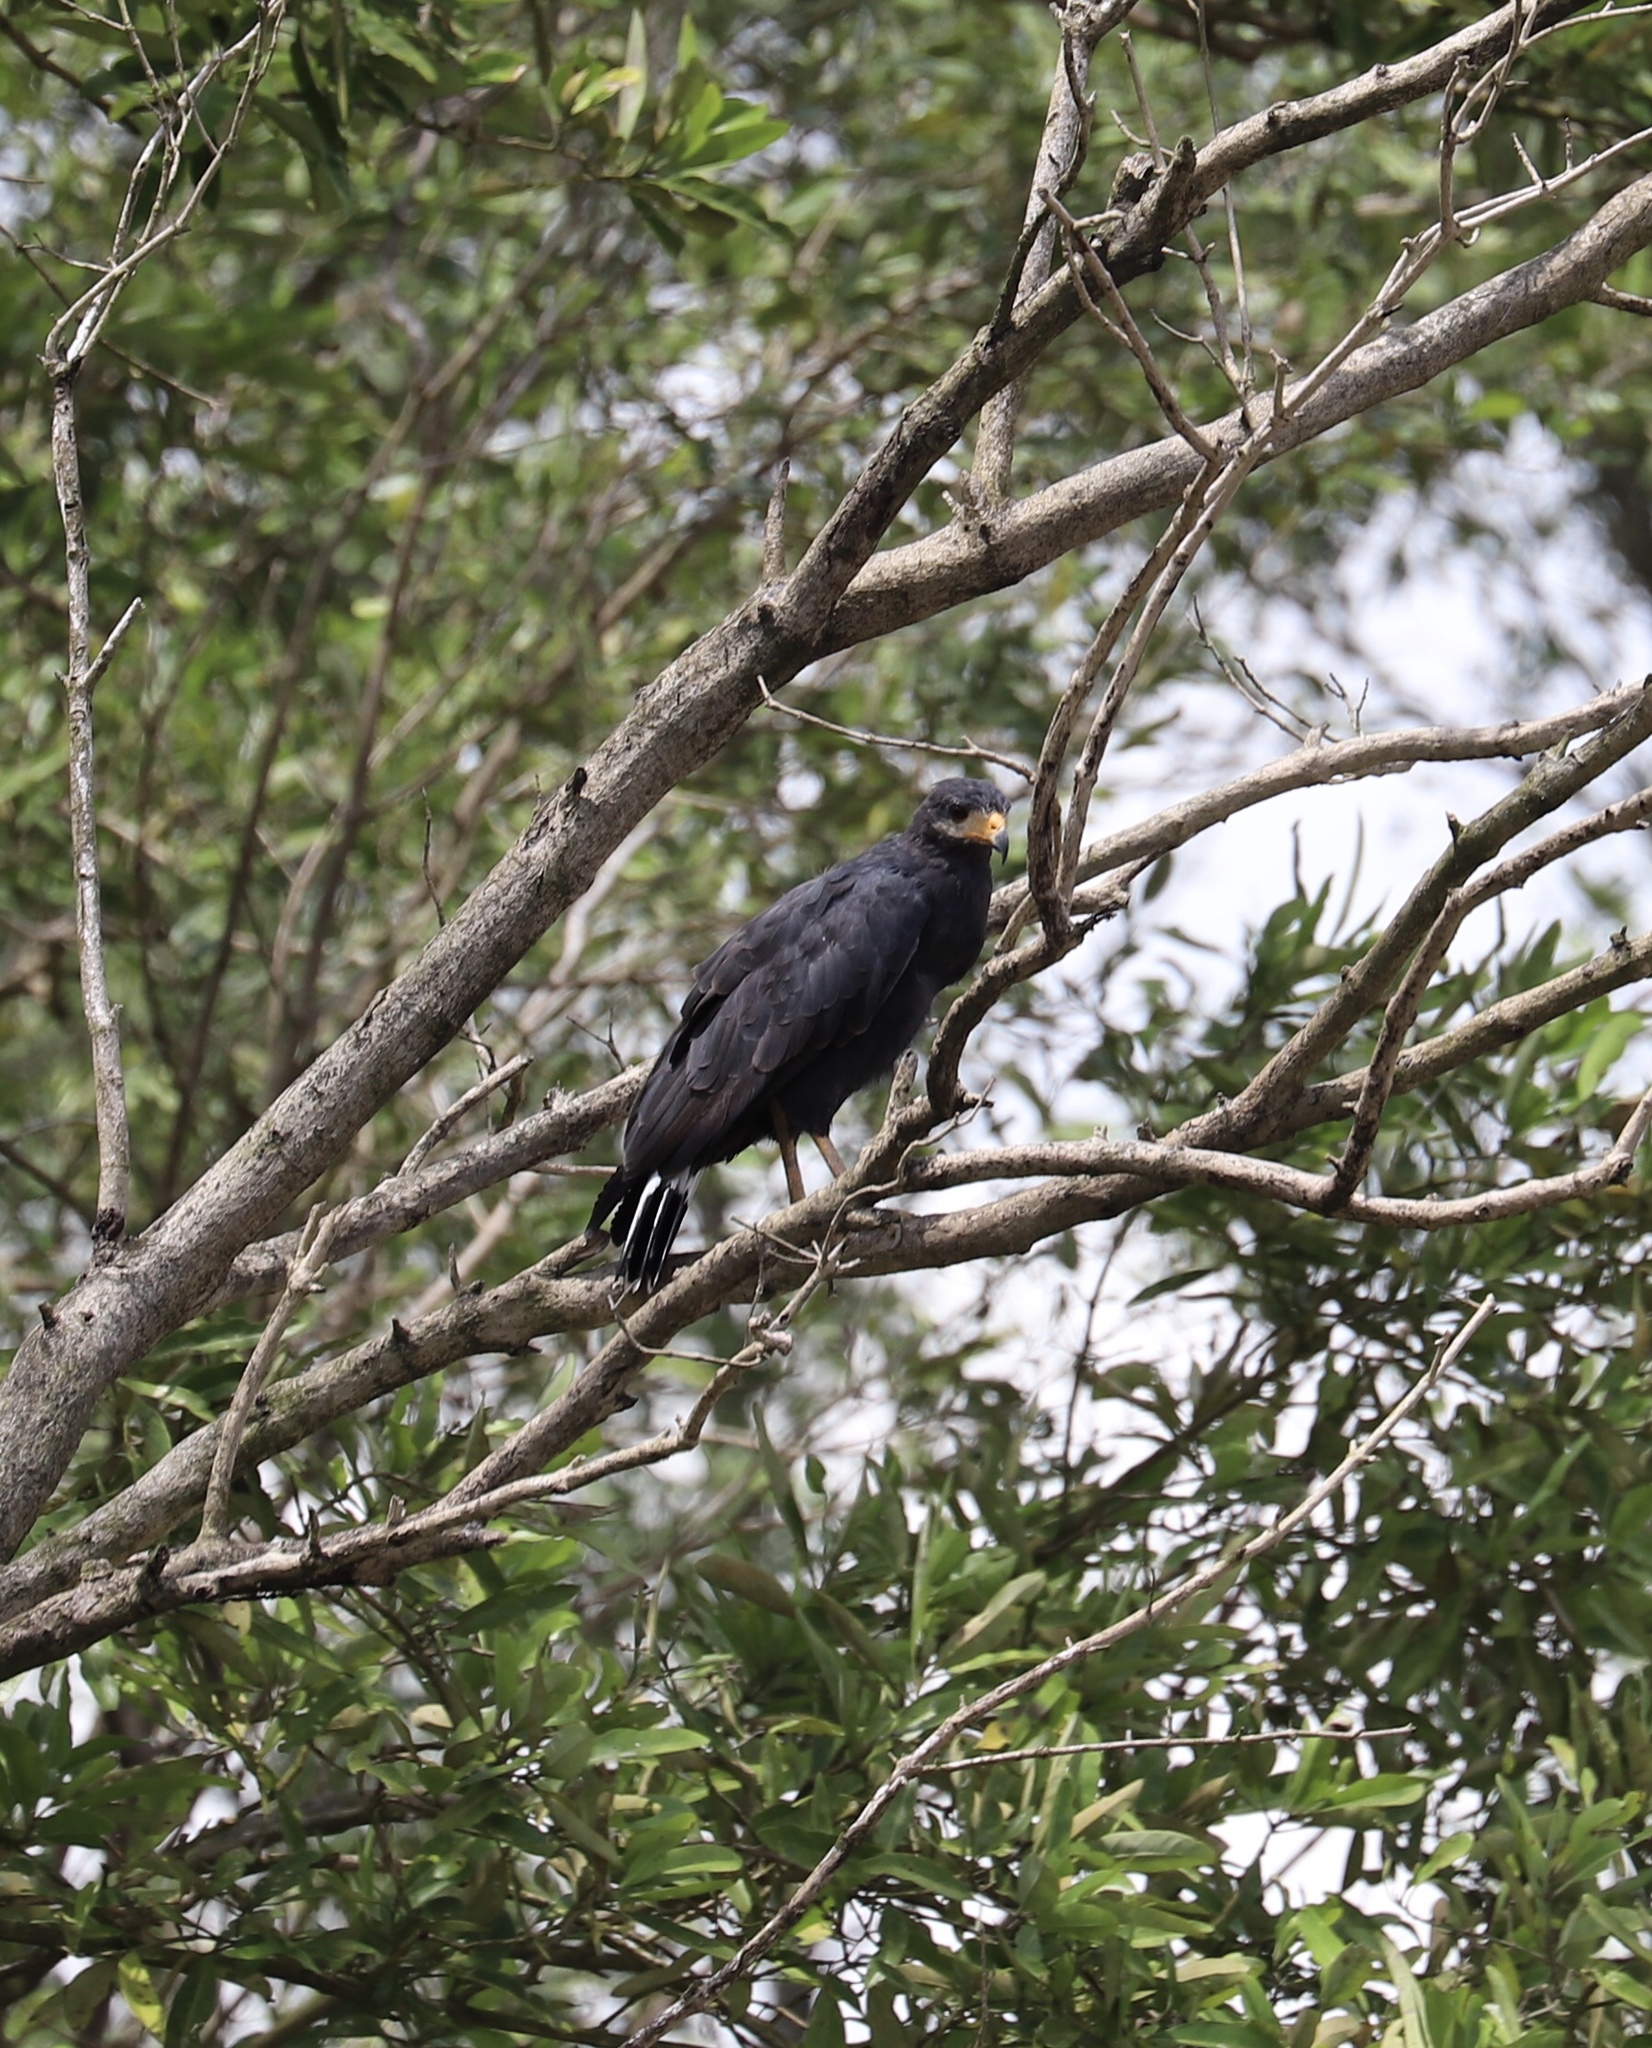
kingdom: Animalia
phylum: Chordata
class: Aves
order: Accipitriformes
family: Accipitridae
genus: Buteogallus
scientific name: Buteogallus anthracinus
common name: Common black hawk
